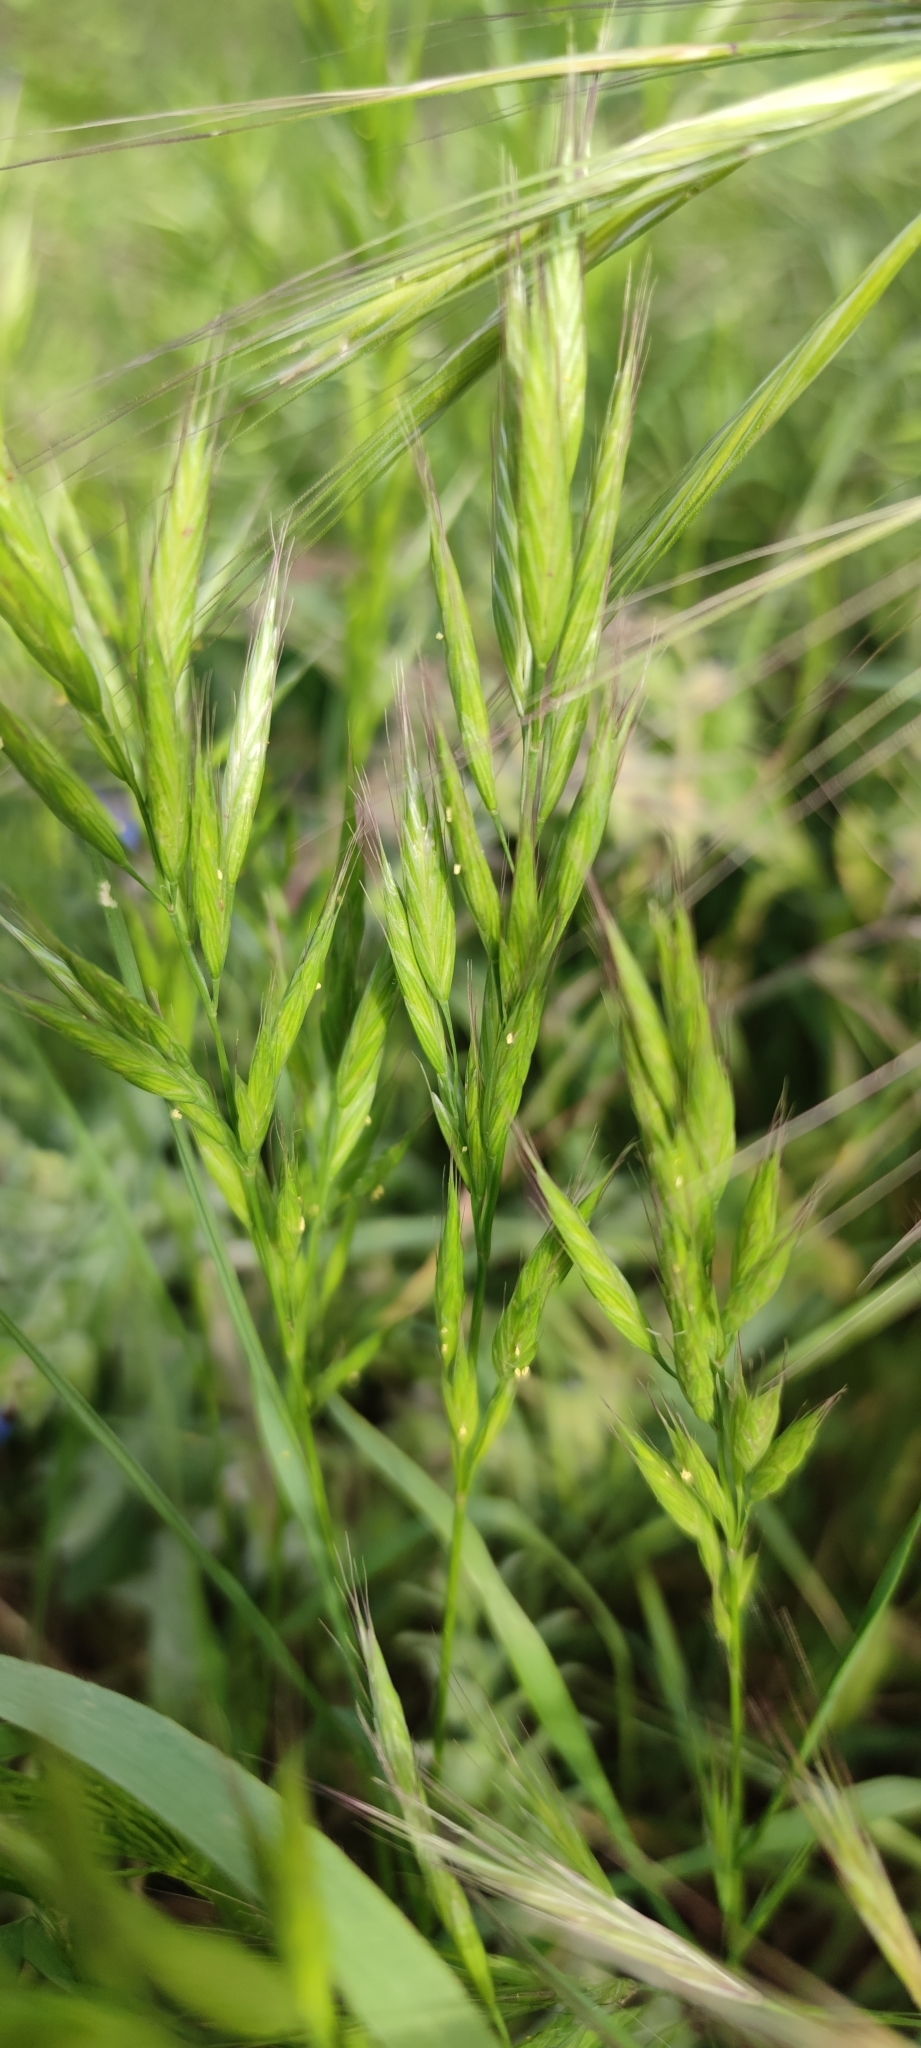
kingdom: Plantae
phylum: Tracheophyta
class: Liliopsida
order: Poales
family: Poaceae
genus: Bromus
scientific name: Bromus hordeaceus
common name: Soft brome
